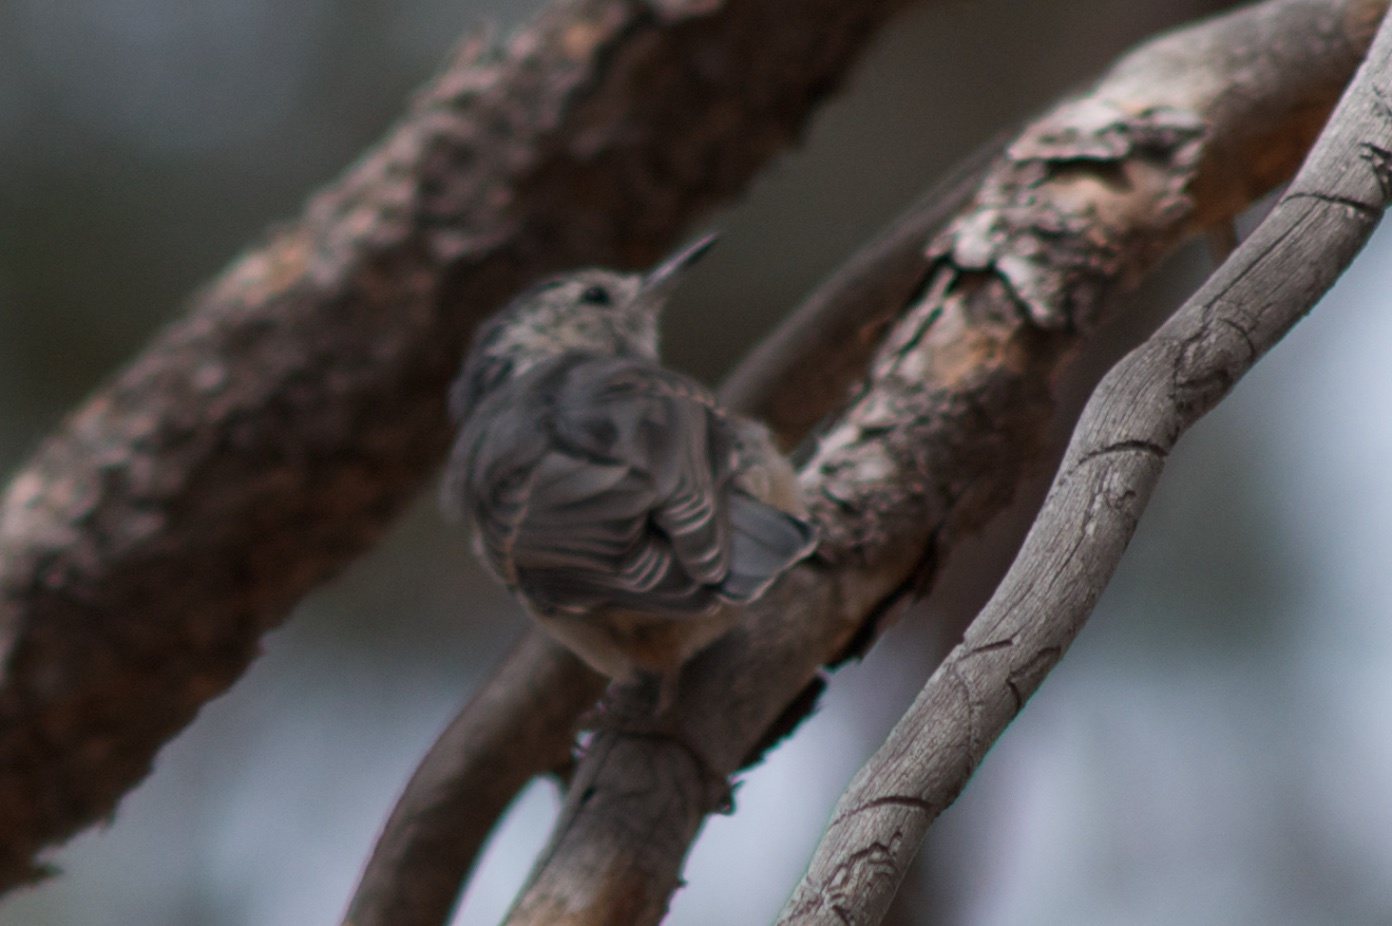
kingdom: Animalia
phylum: Chordata
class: Aves
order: Passeriformes
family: Sittidae
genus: Sitta
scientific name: Sitta carolinensis
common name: White-breasted nuthatch
